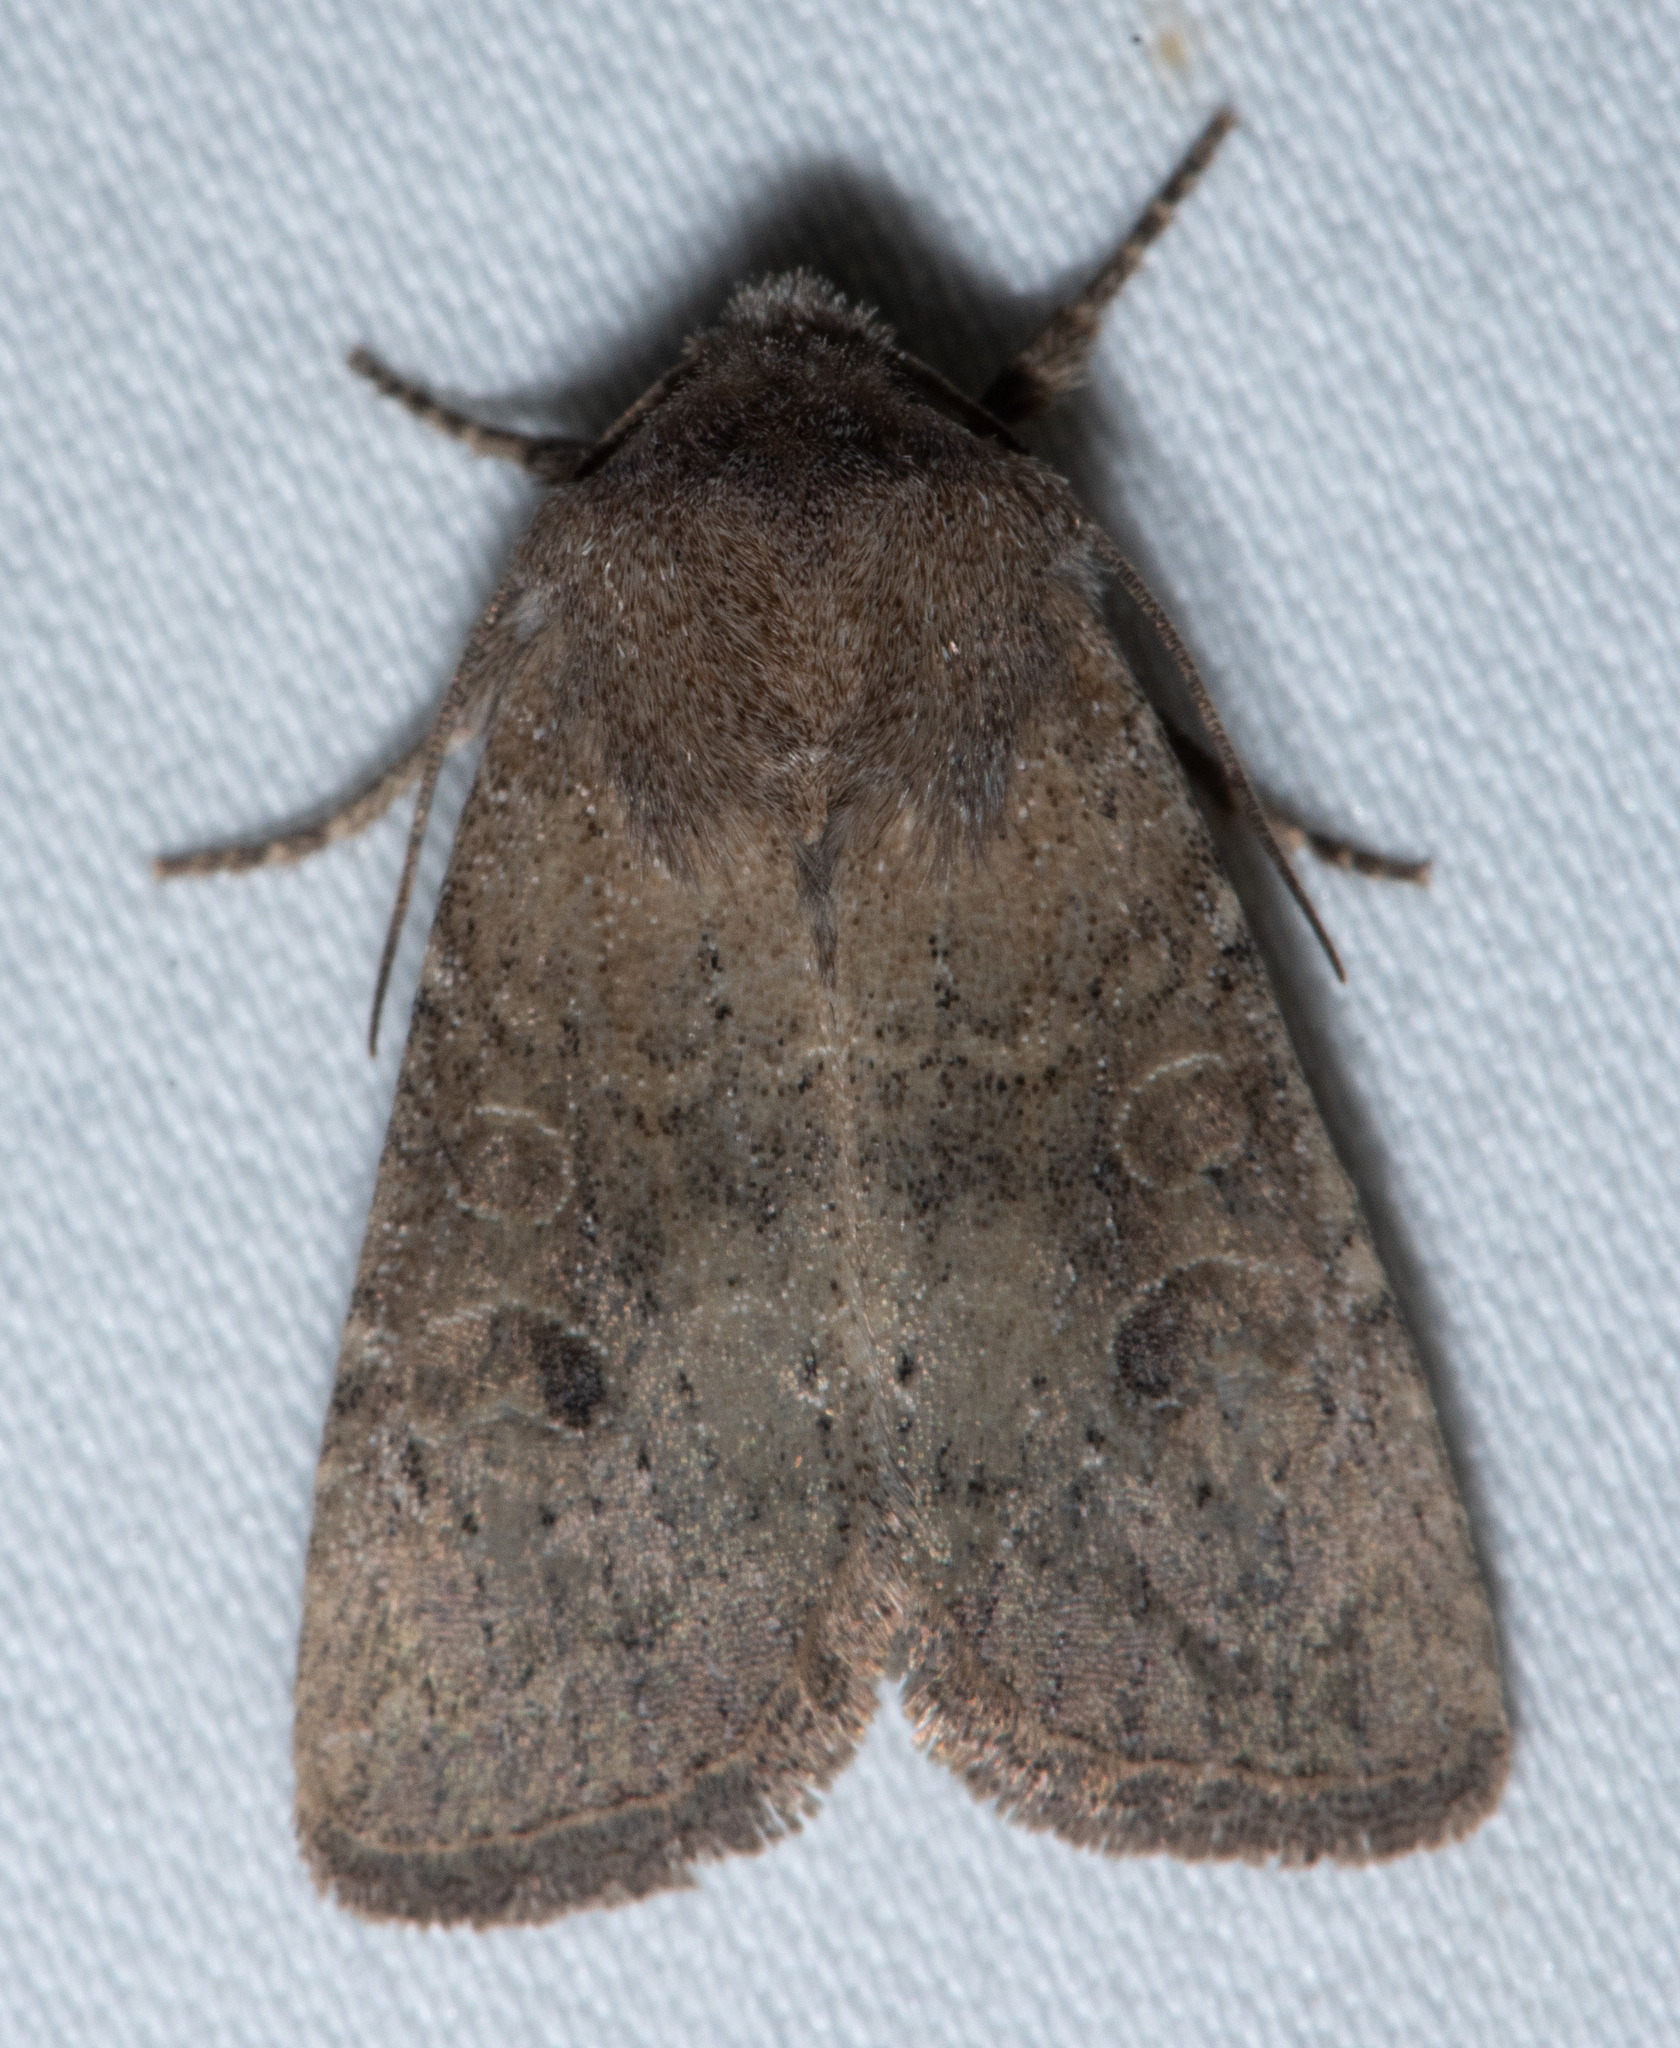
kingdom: Animalia
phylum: Arthropoda
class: Insecta
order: Lepidoptera
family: Noctuidae
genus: Orthosia
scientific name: Orthosia hibisci
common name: Green fruitworm
